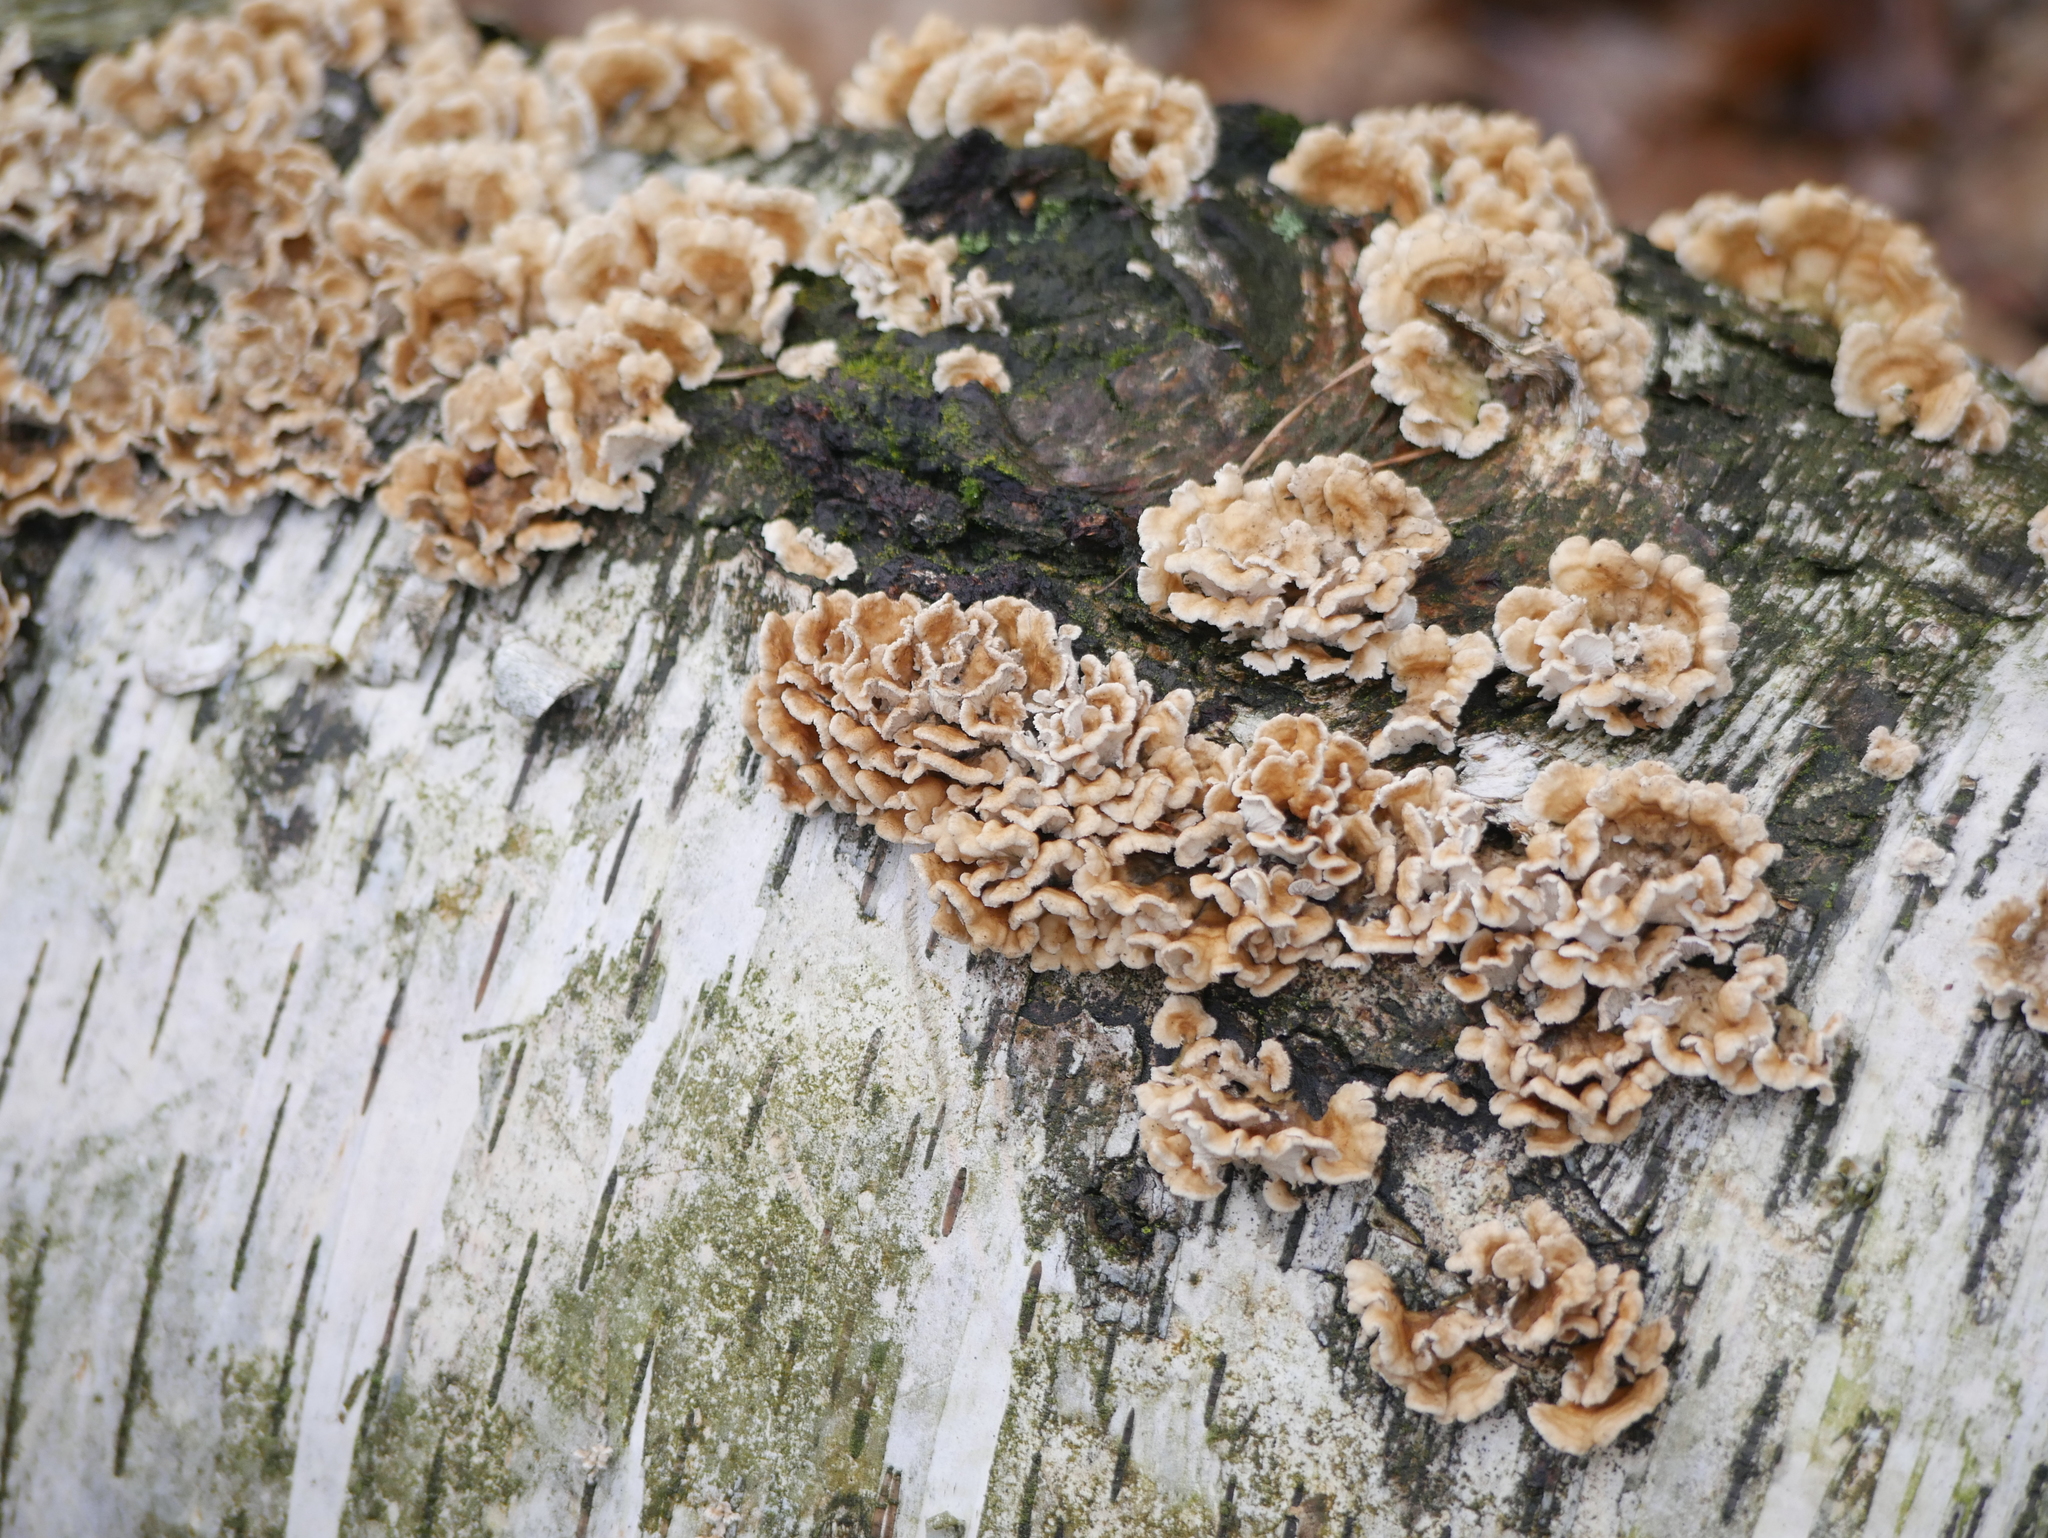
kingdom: Fungi
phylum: Basidiomycota
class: Agaricomycetes
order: Polyporales
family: Polyporaceae
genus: Trametes
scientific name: Trametes versicolor
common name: Turkeytail
